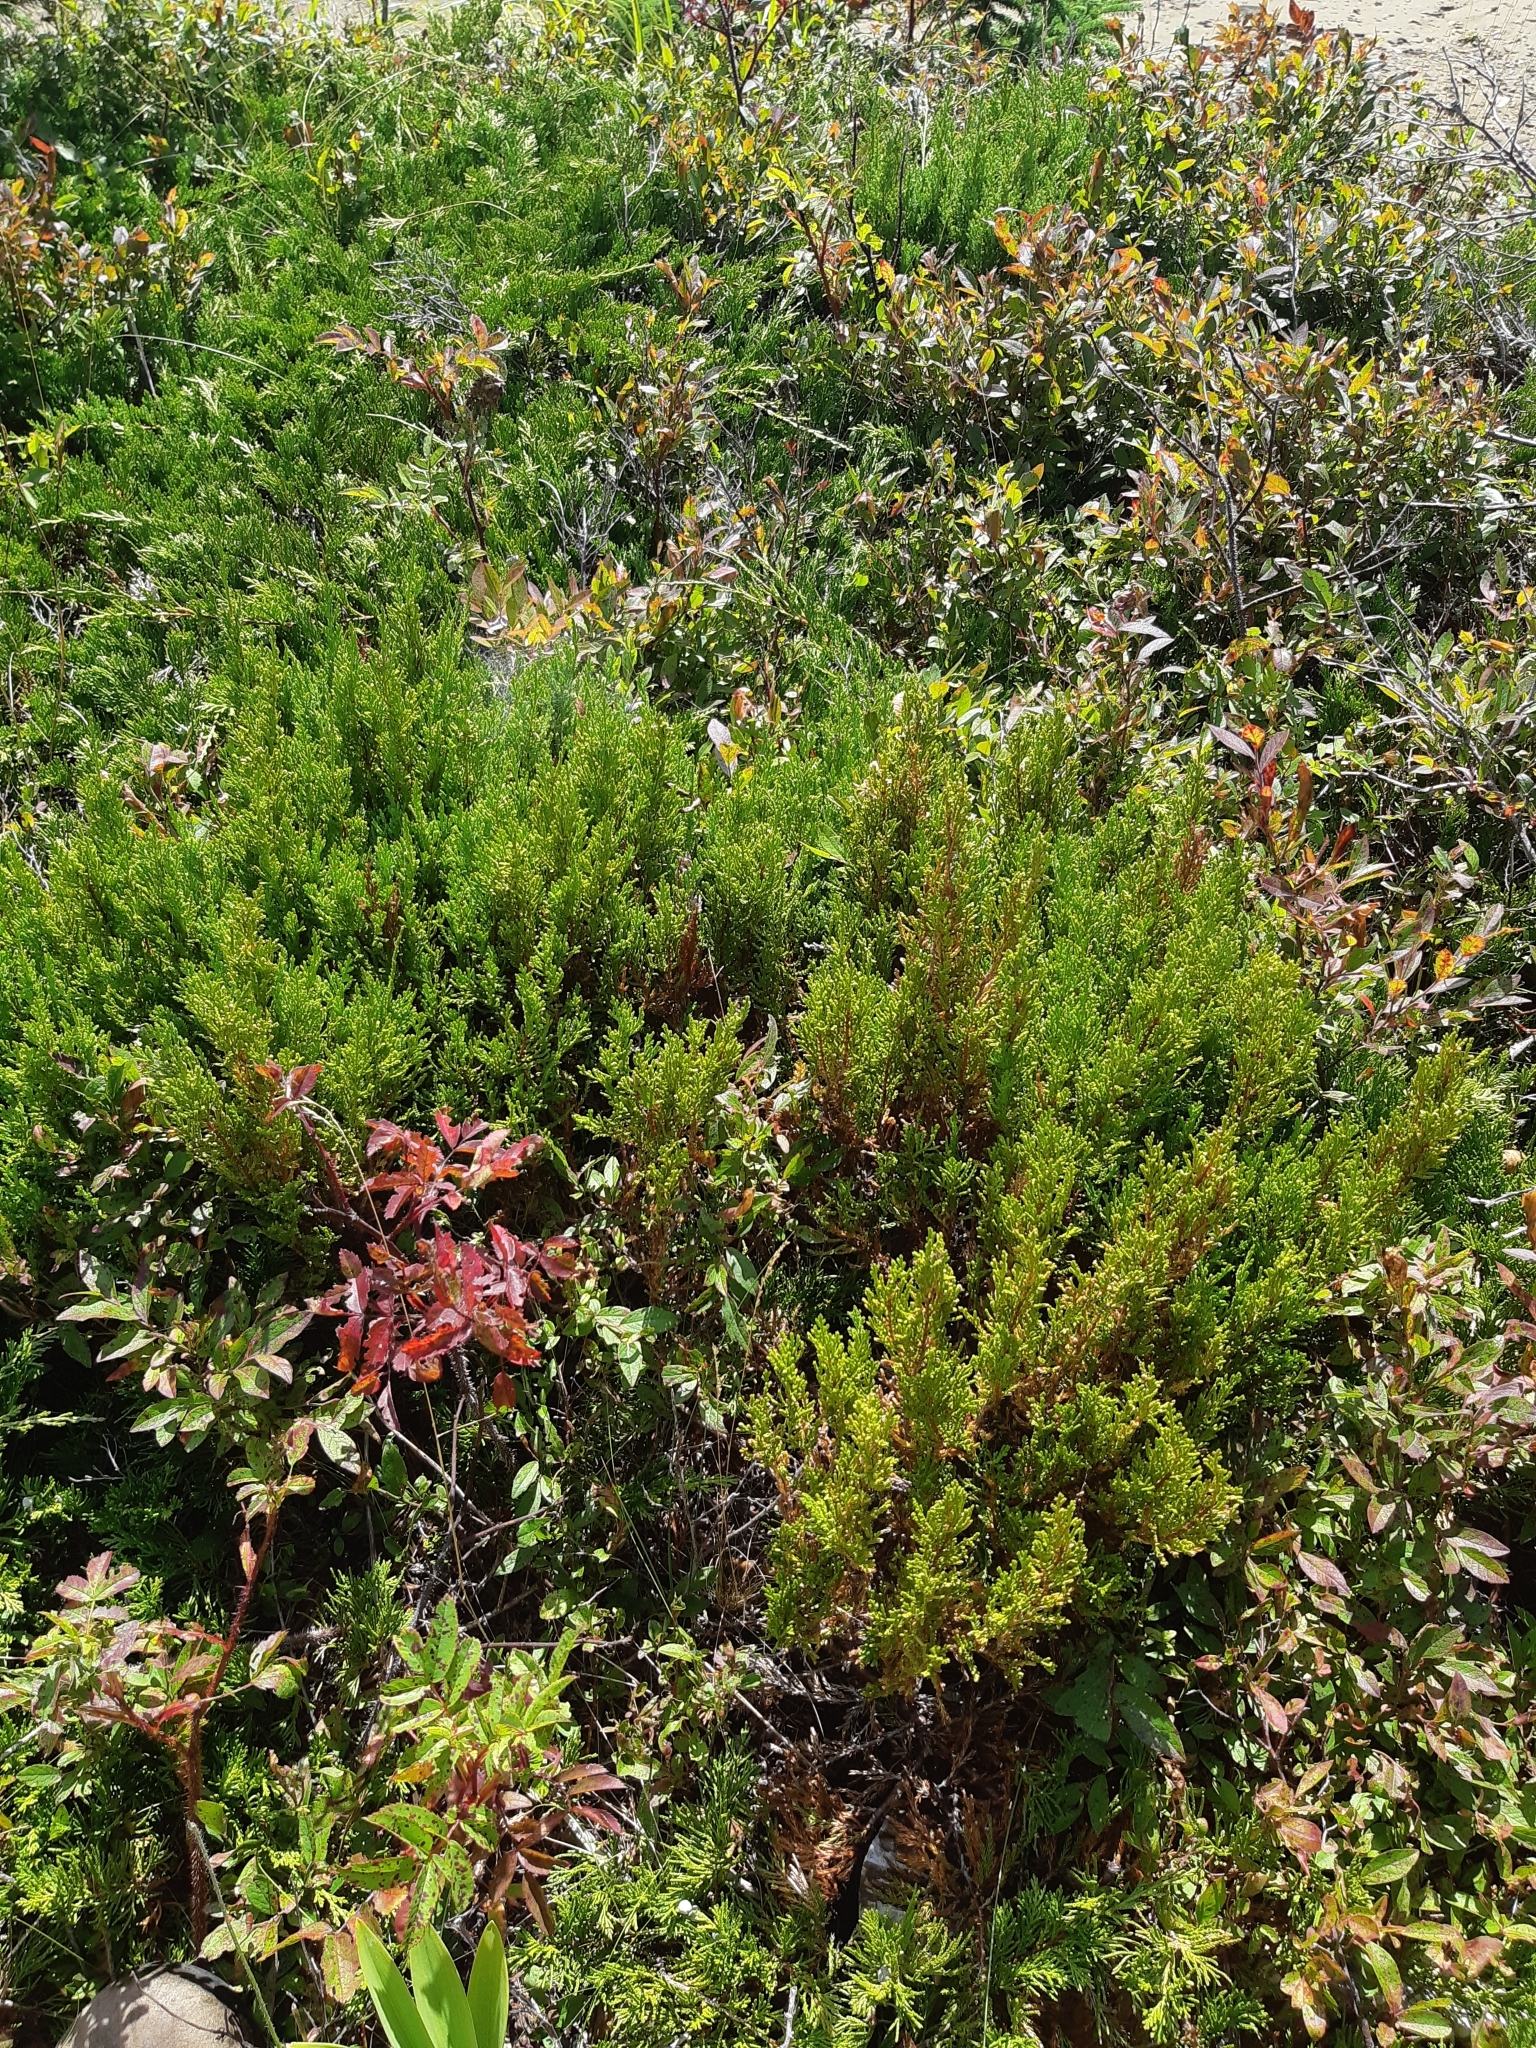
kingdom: Plantae
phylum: Tracheophyta
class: Pinopsida
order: Pinales
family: Cupressaceae
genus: Juniperus
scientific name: Juniperus horizontalis
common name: Creeping juniper
